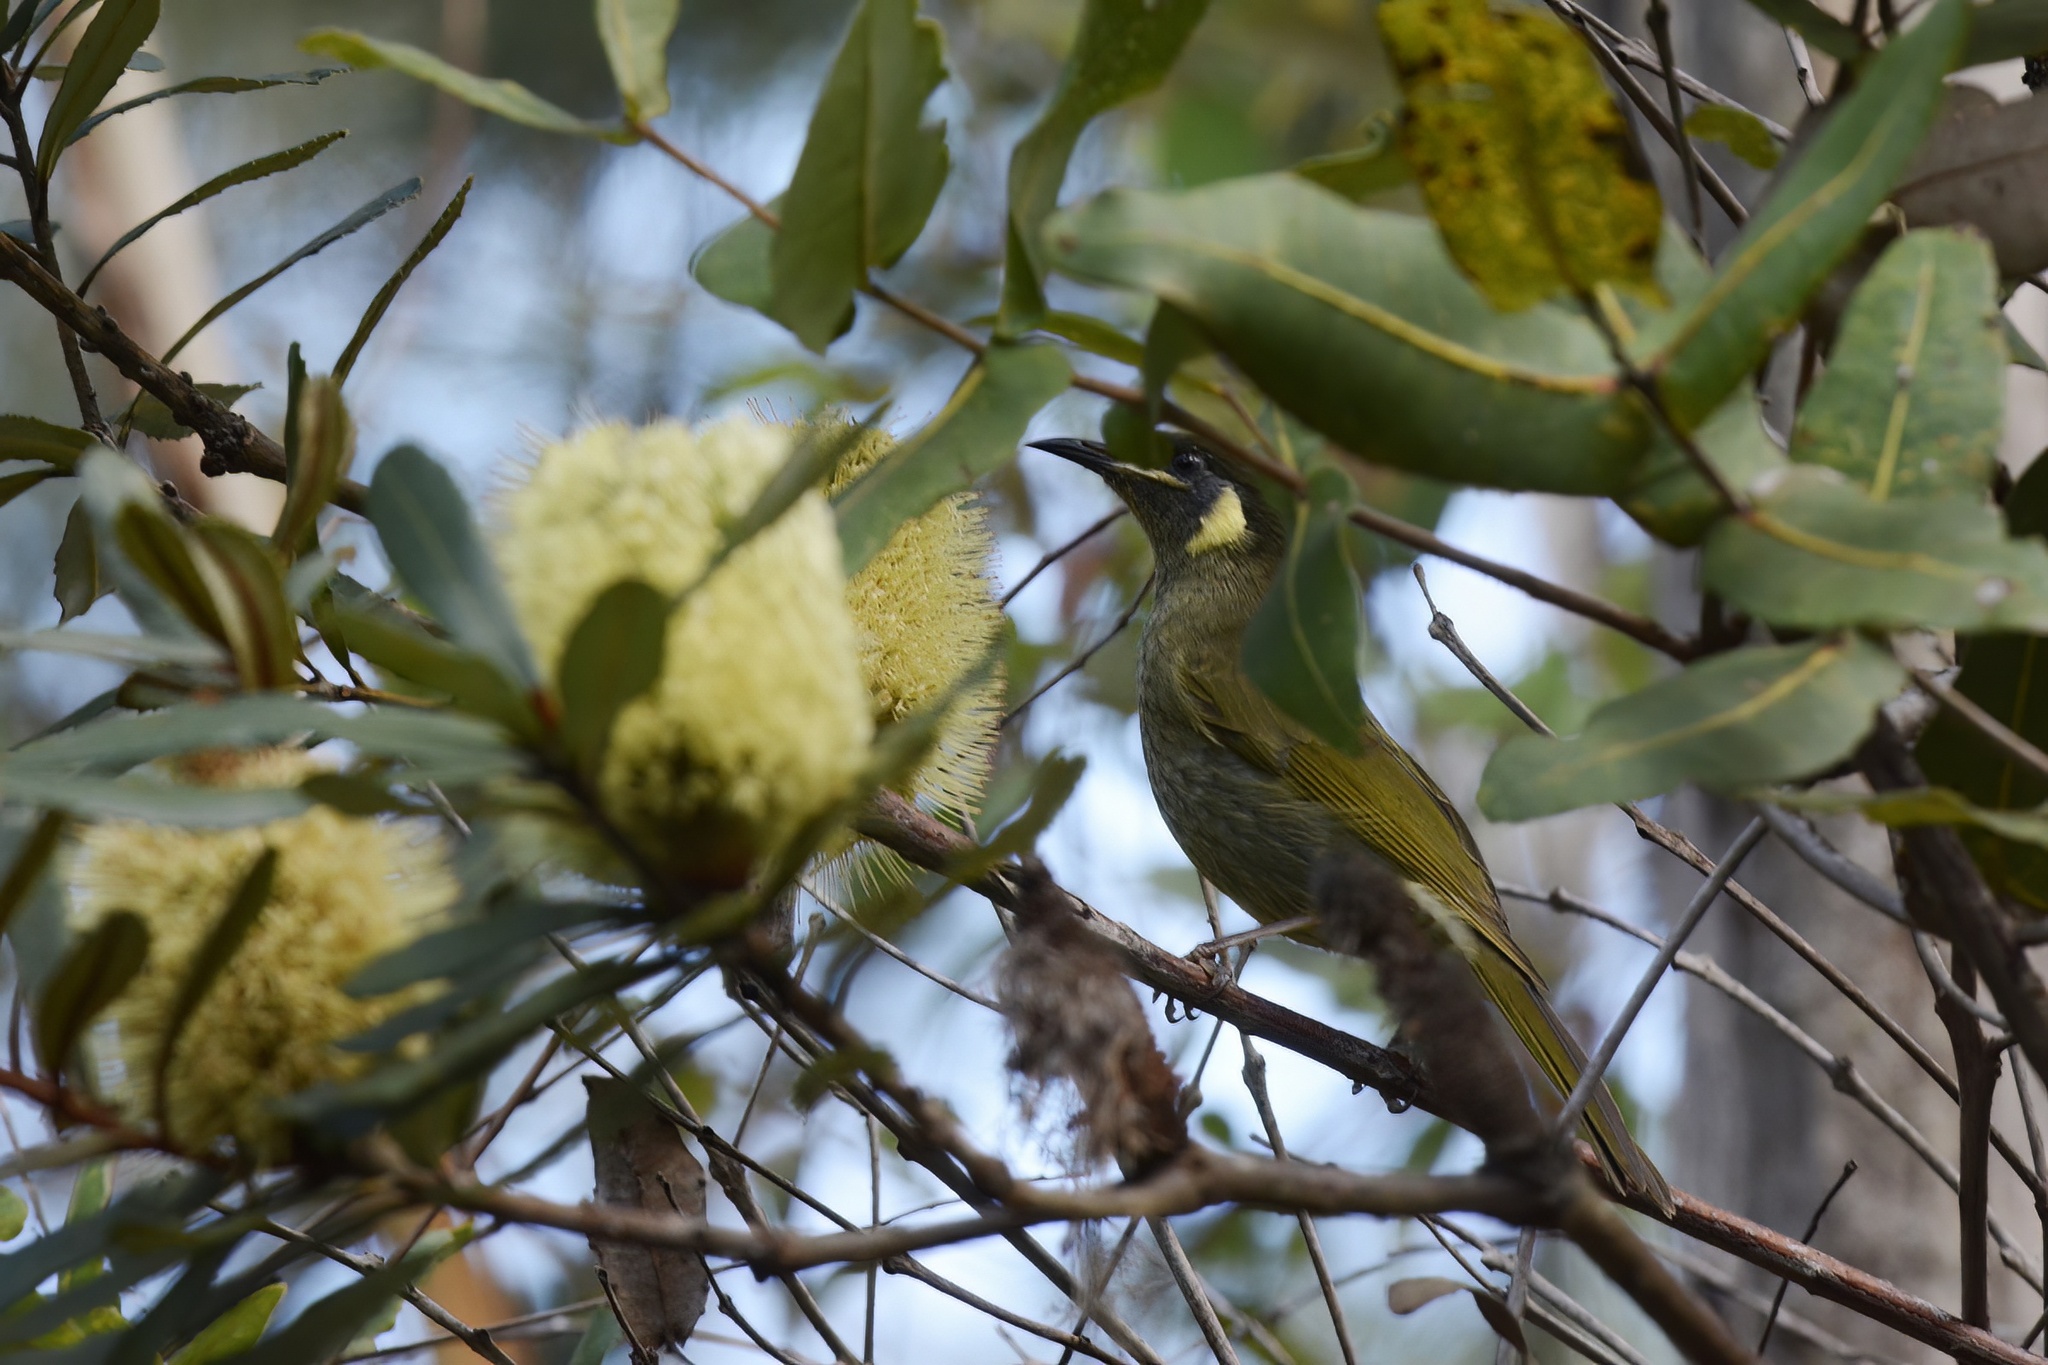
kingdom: Animalia
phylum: Chordata
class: Aves
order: Passeriformes
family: Meliphagidae
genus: Meliphaga
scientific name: Meliphaga lewinii
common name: Lewin's honeyeater
